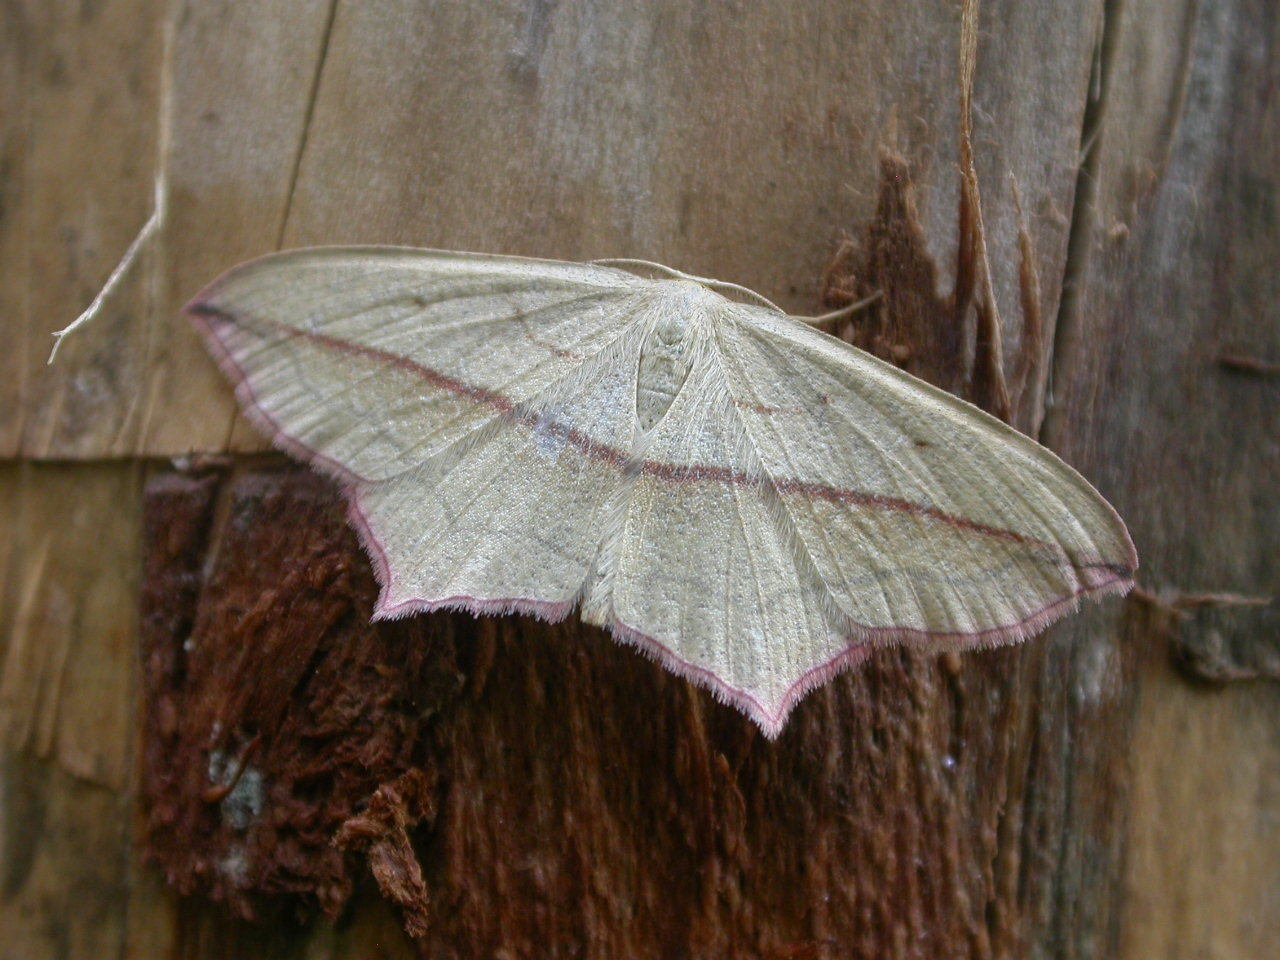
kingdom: Animalia
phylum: Arthropoda
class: Insecta
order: Lepidoptera
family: Geometridae
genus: Timandra
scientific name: Timandra comae
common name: Blood-vein
